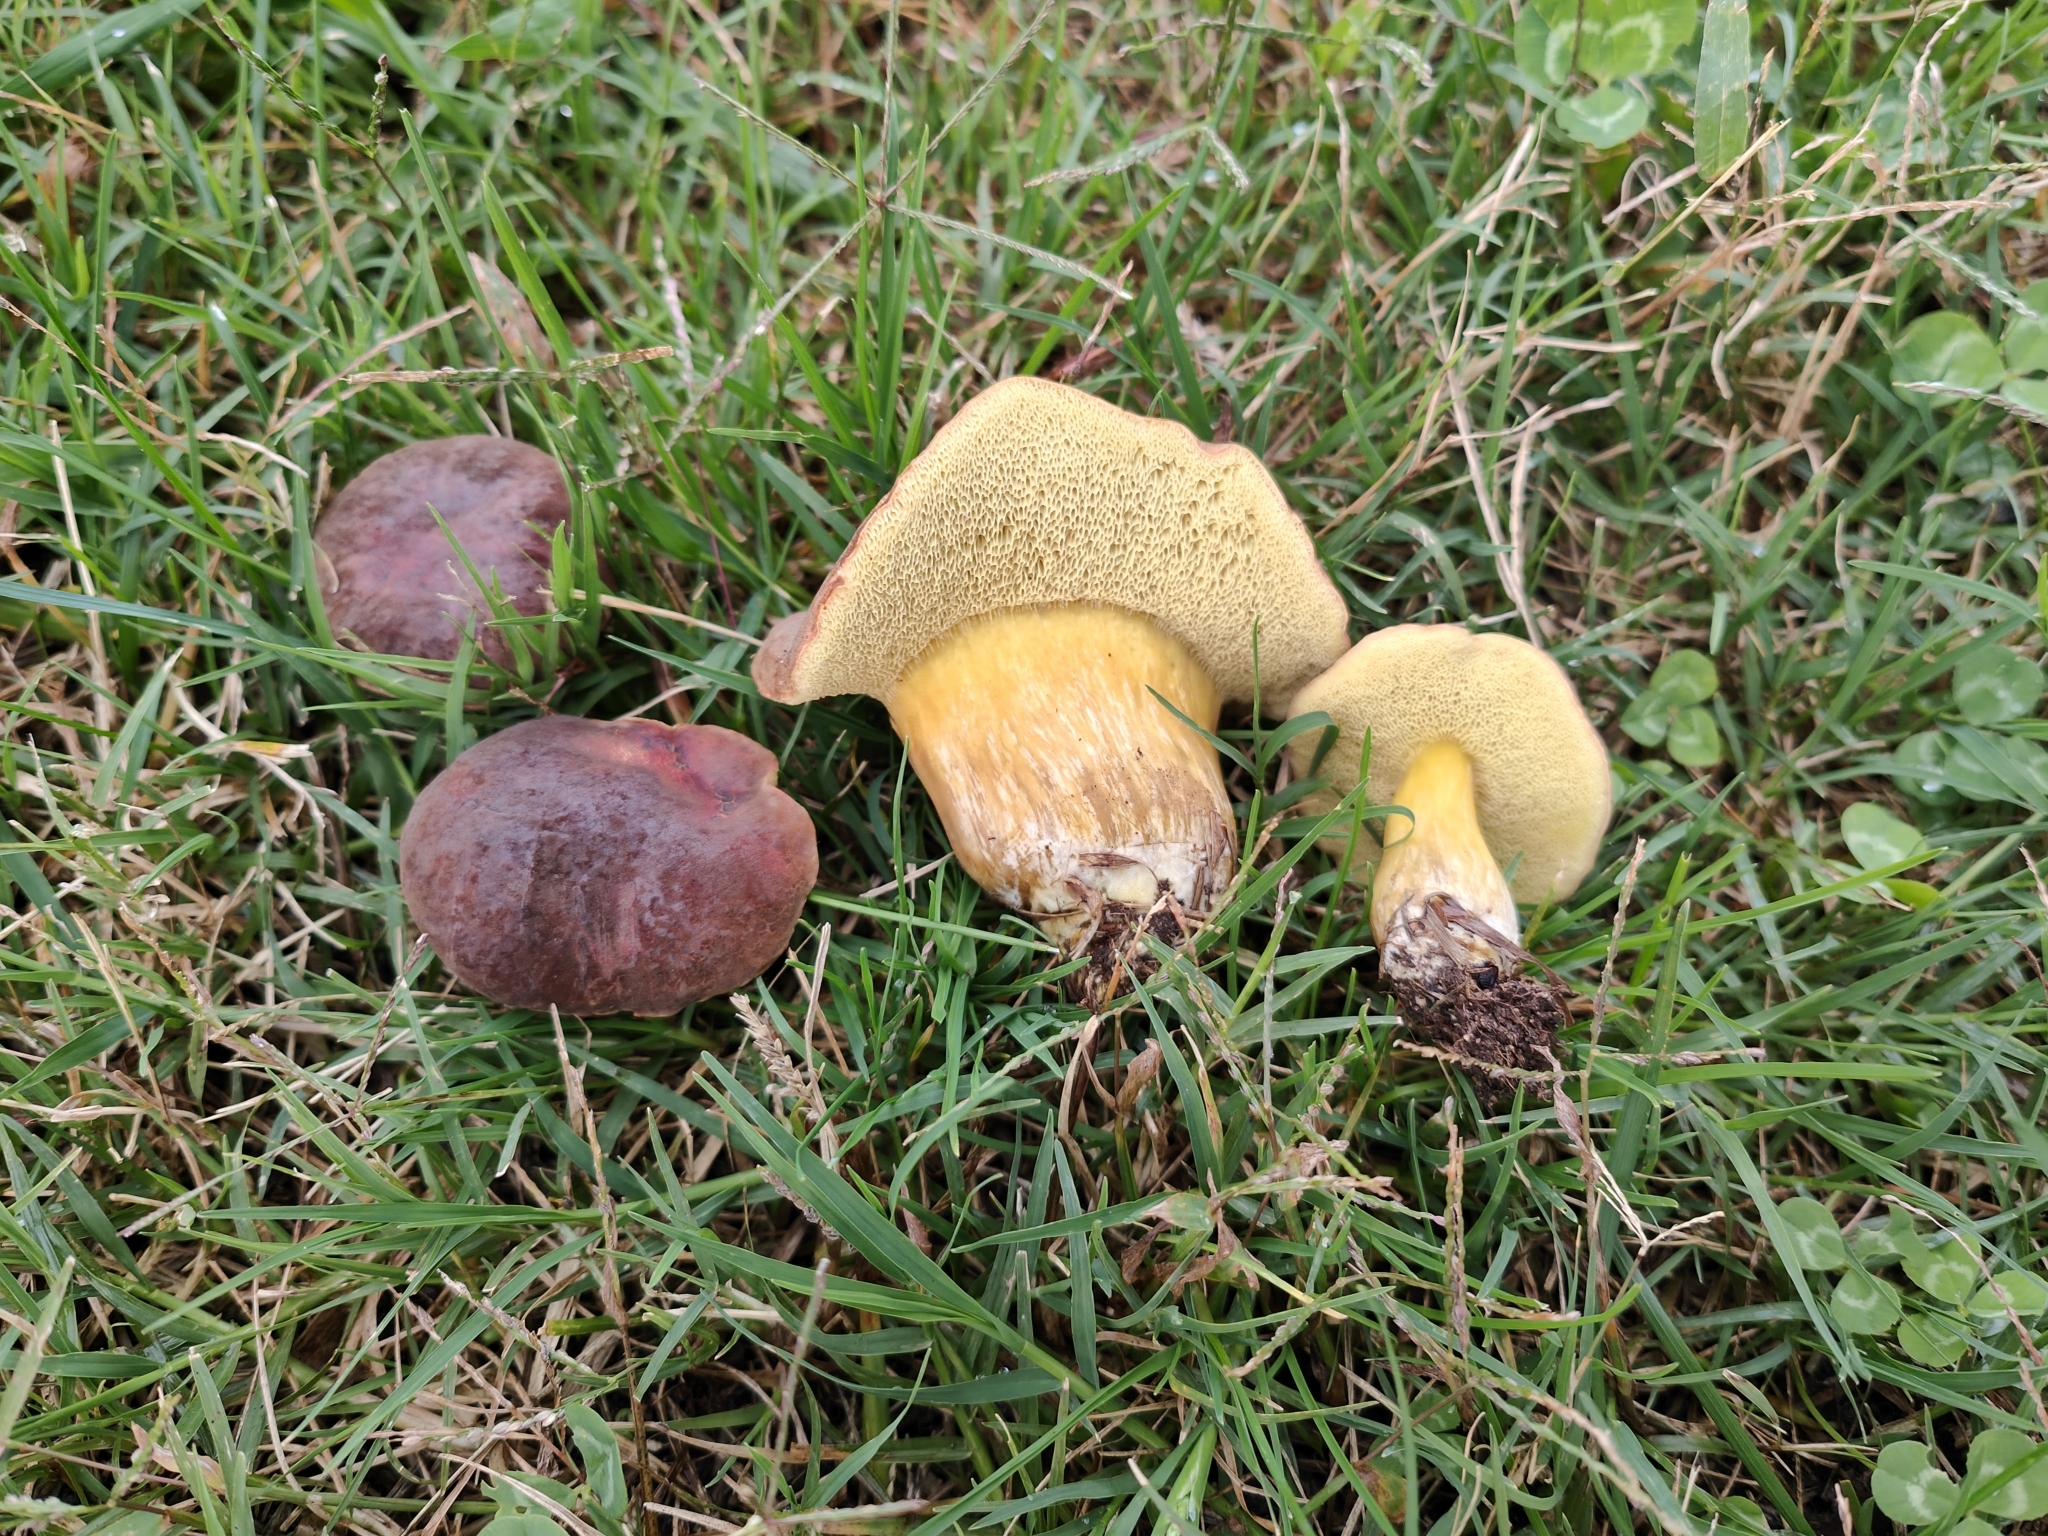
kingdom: Fungi
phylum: Basidiomycota
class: Agaricomycetes
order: Boletales
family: Boletaceae
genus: Hortiboletus
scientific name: Hortiboletus engelii
